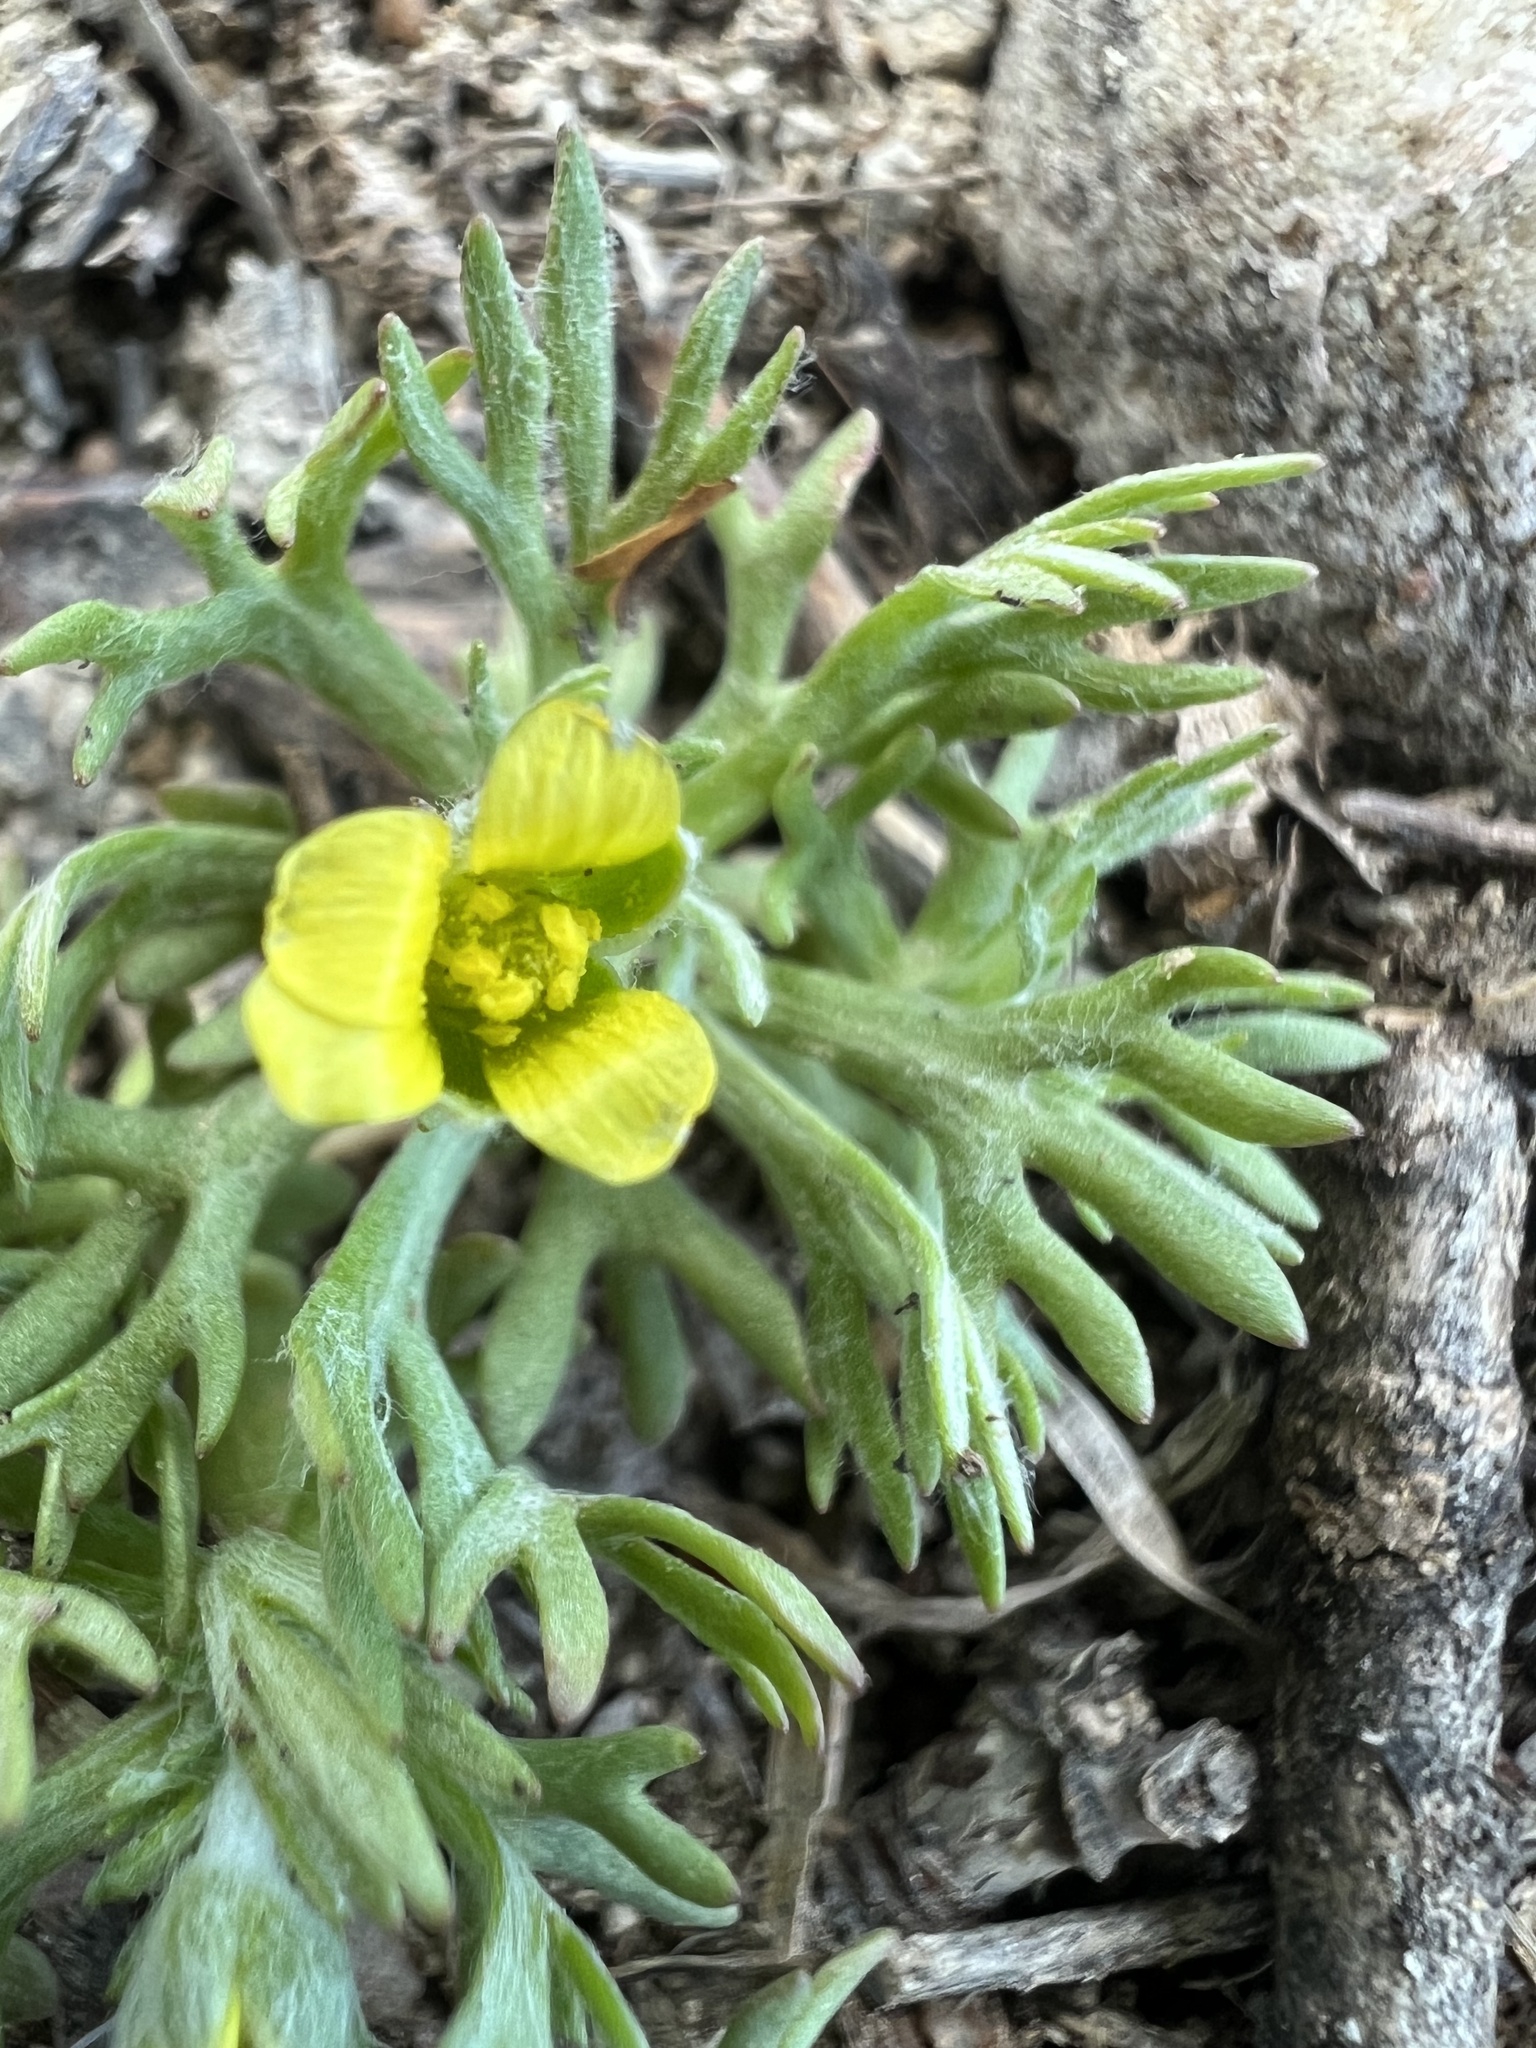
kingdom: Plantae
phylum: Tracheophyta
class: Magnoliopsida
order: Ranunculales
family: Ranunculaceae
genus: Ceratocephala
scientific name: Ceratocephala orthoceras
